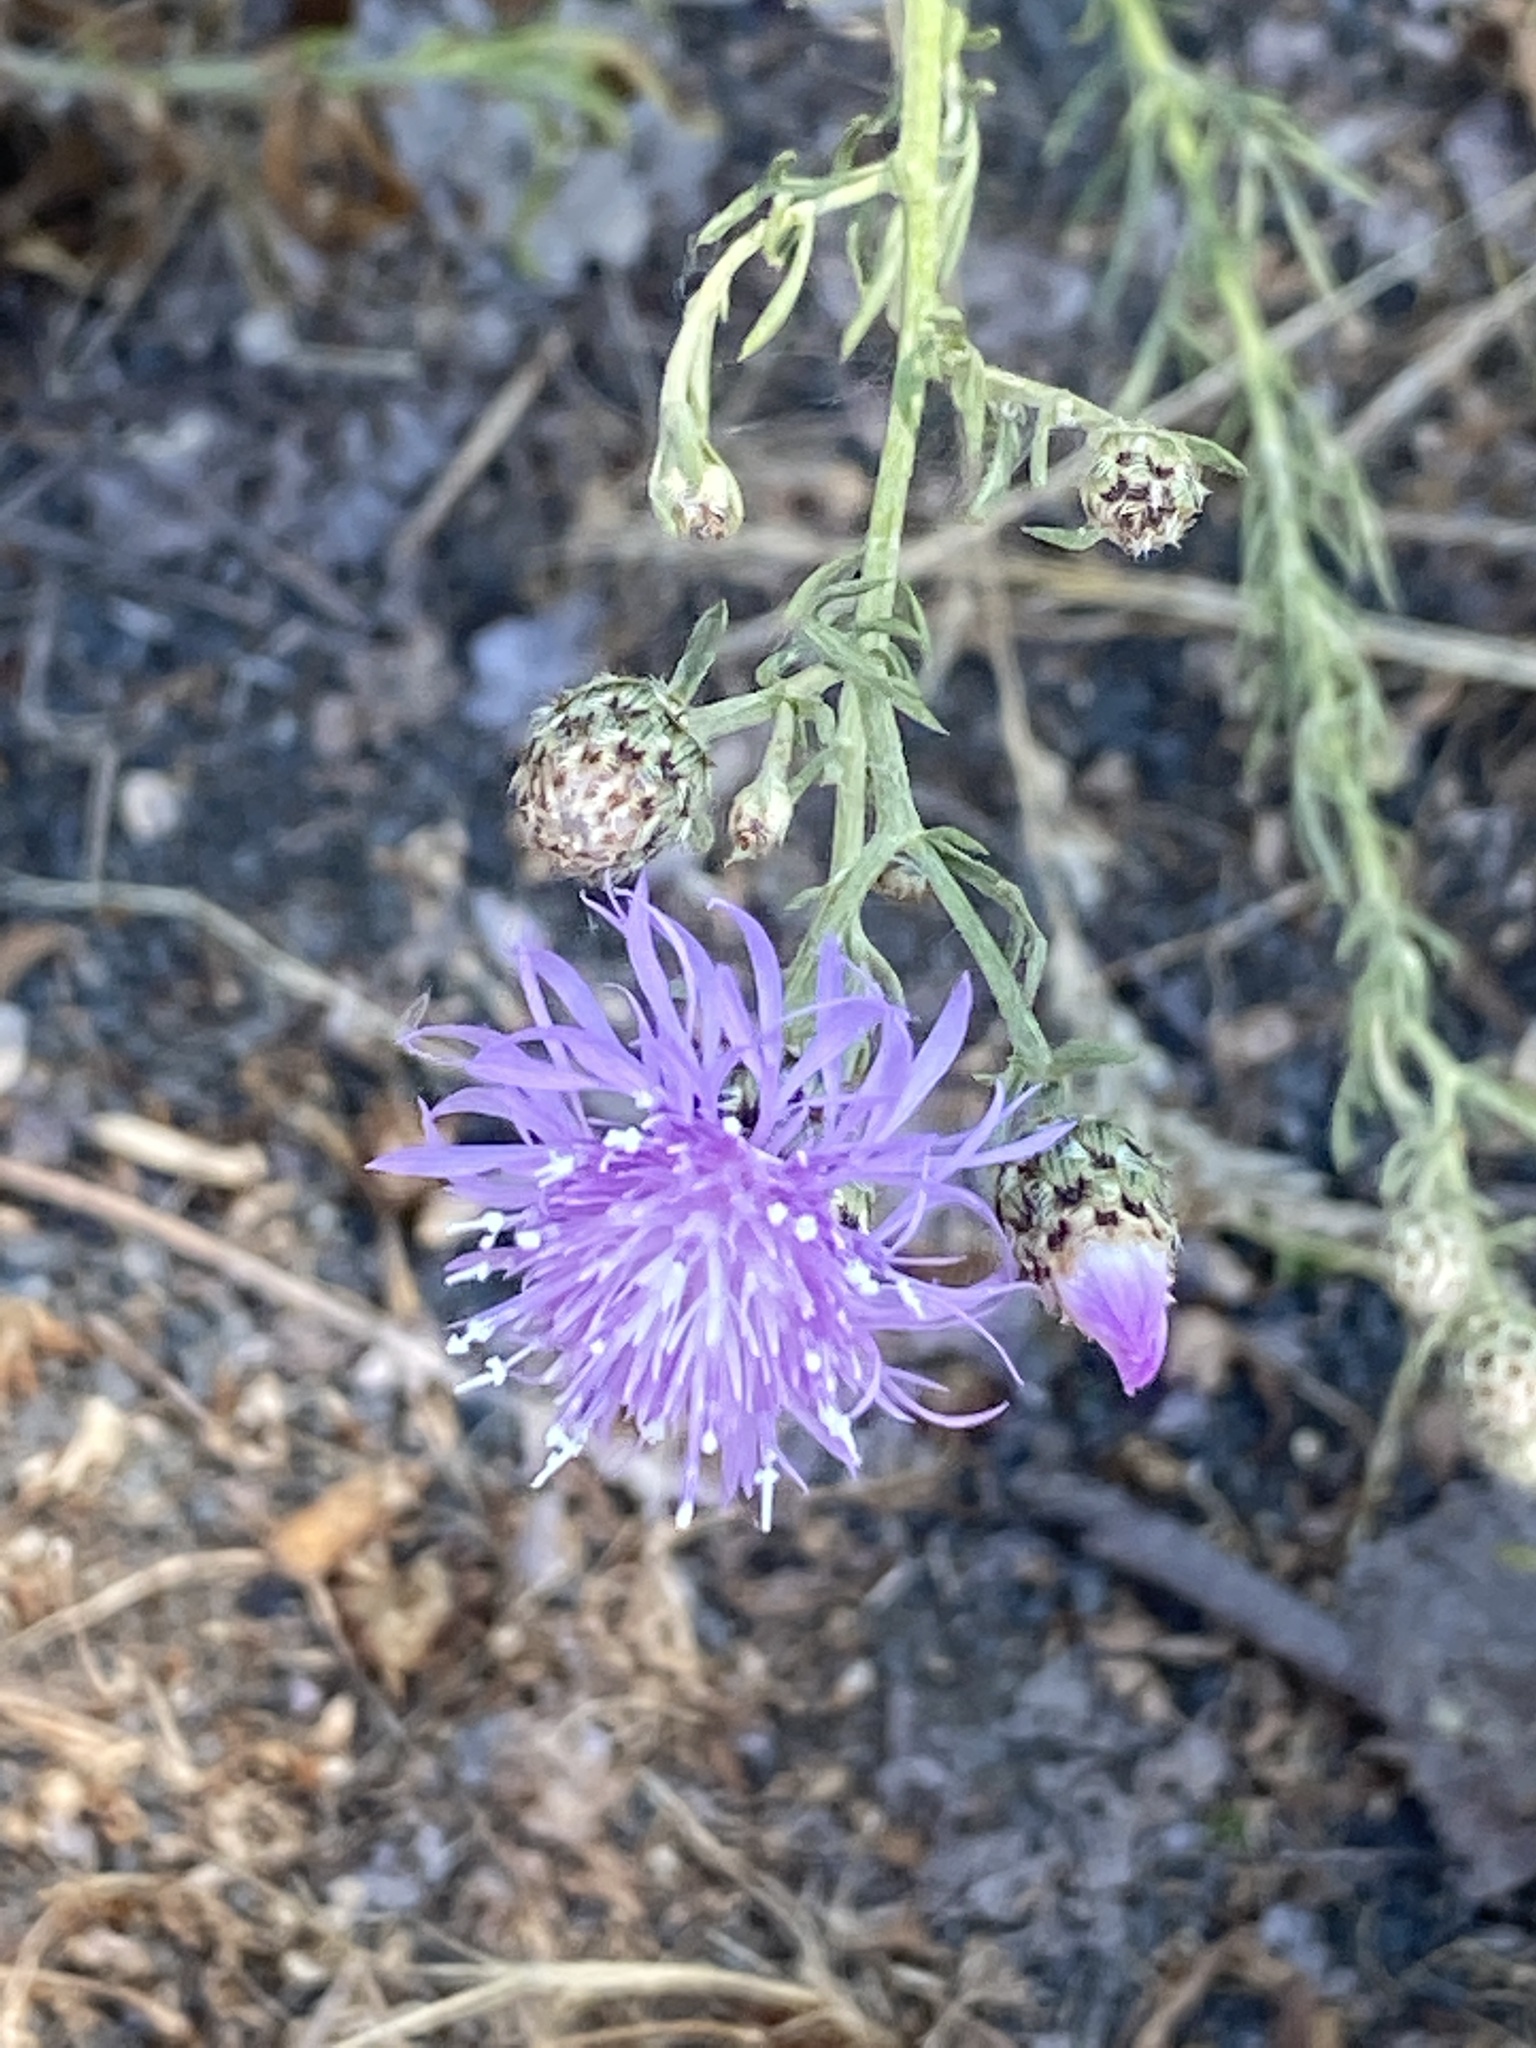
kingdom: Plantae
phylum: Tracheophyta
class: Magnoliopsida
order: Asterales
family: Asteraceae
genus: Centaurea
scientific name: Centaurea stoebe
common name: Spotted knapweed
